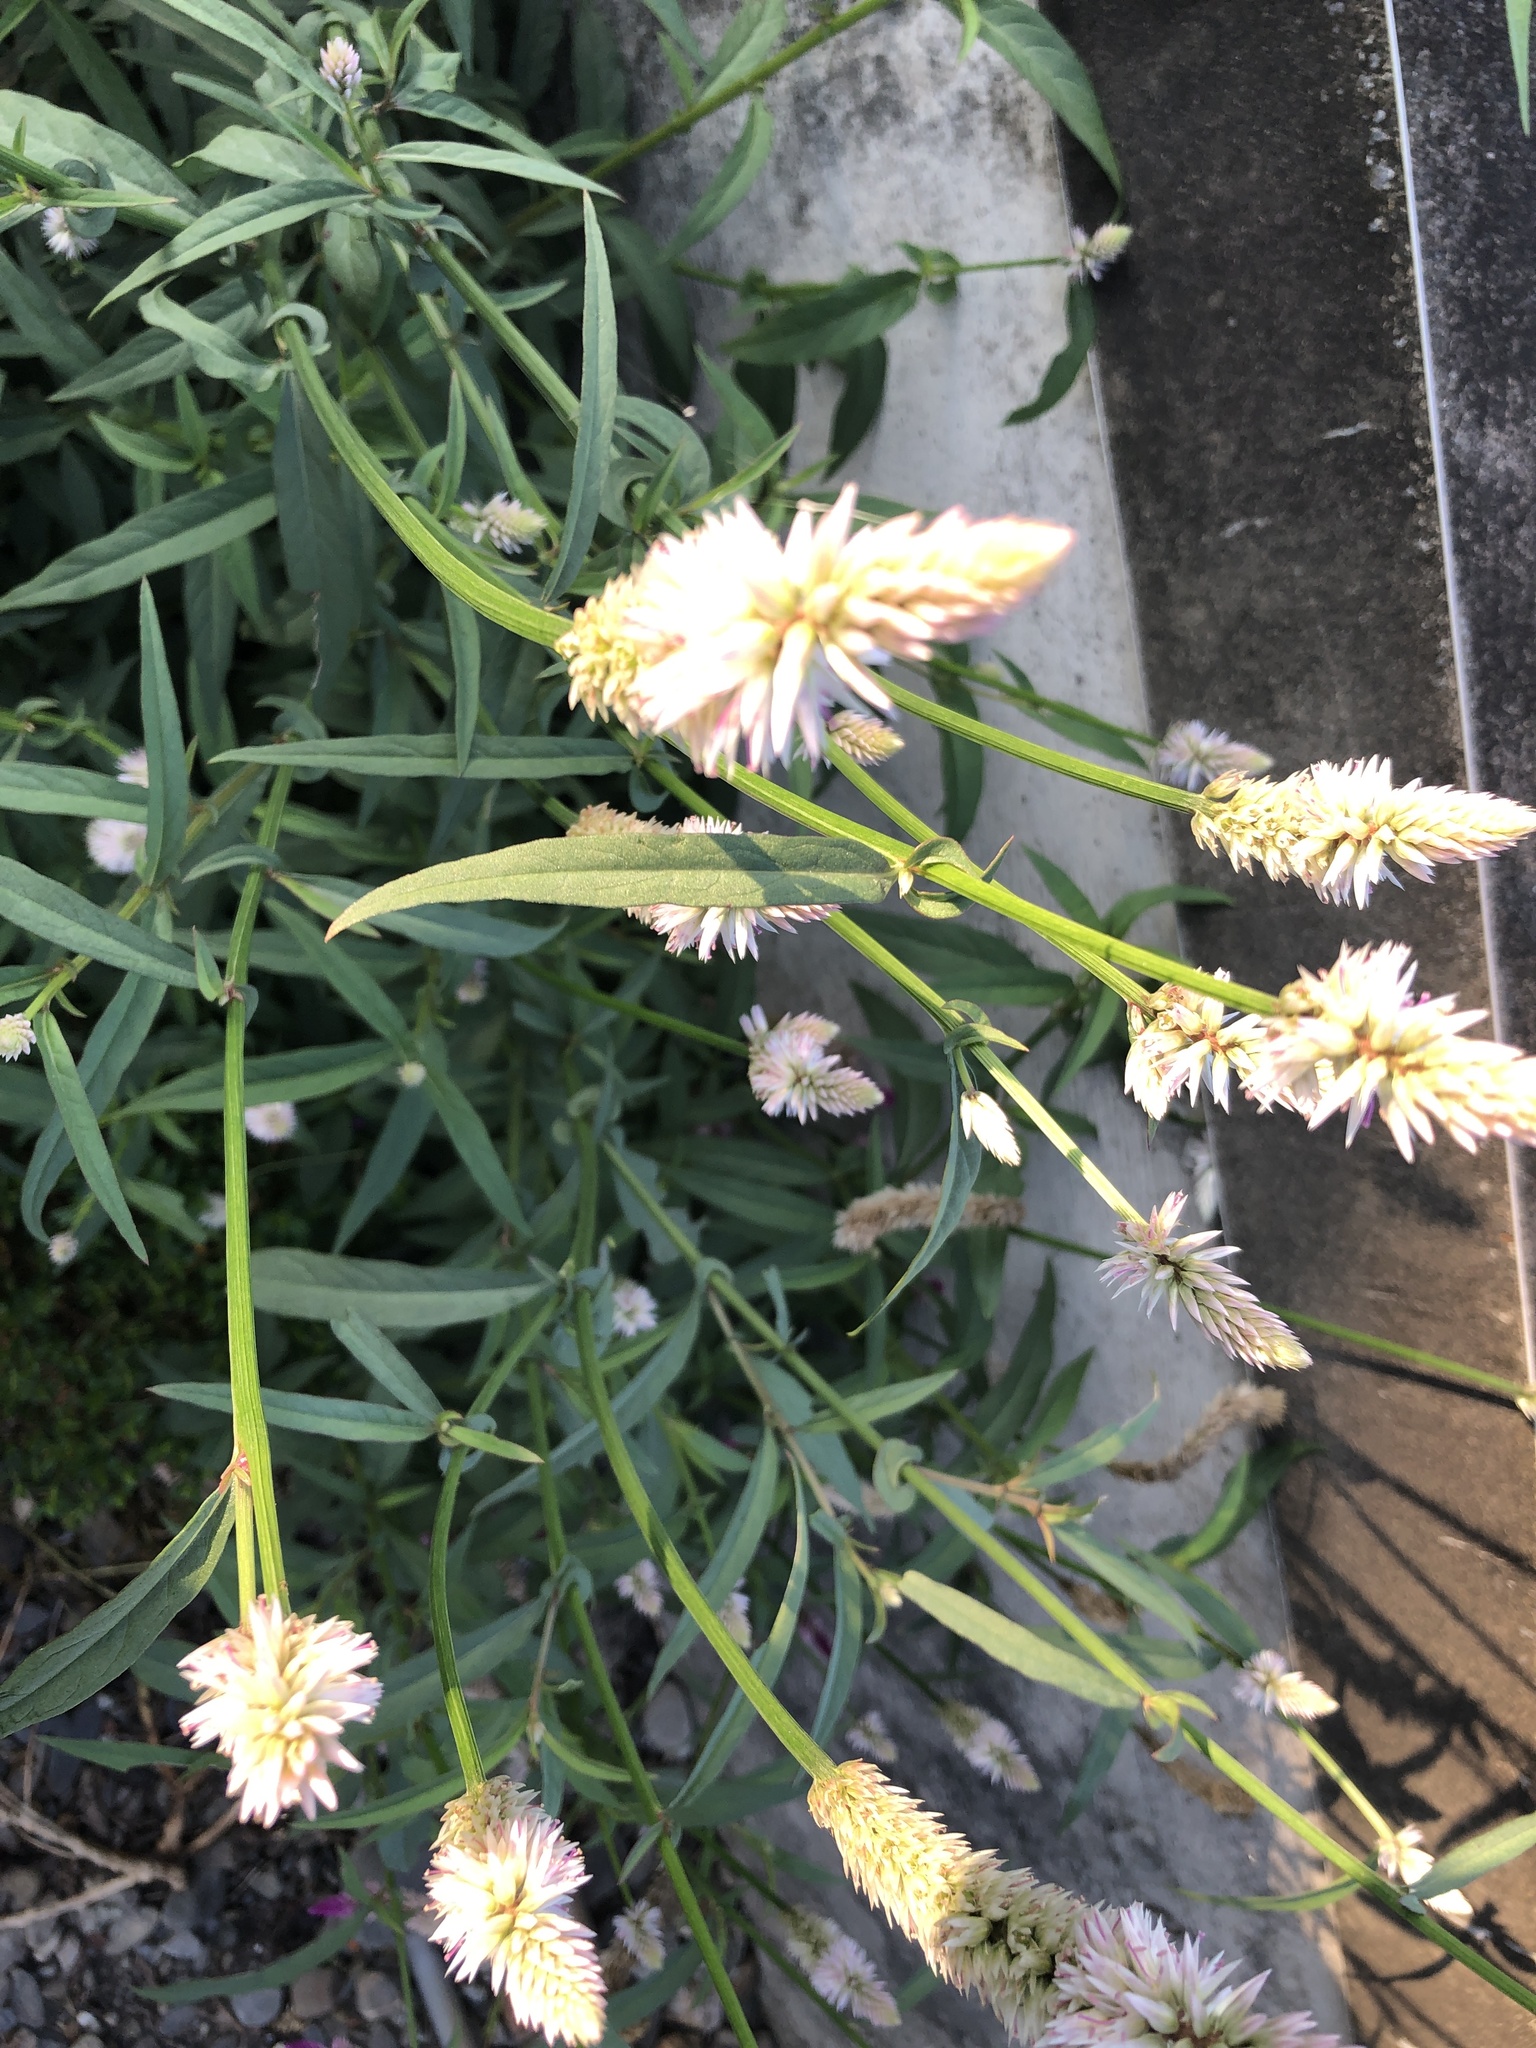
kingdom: Plantae
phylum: Tracheophyta
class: Magnoliopsida
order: Caryophyllales
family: Amaranthaceae
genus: Celosia
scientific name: Celosia argentea
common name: Feather cockscomb
